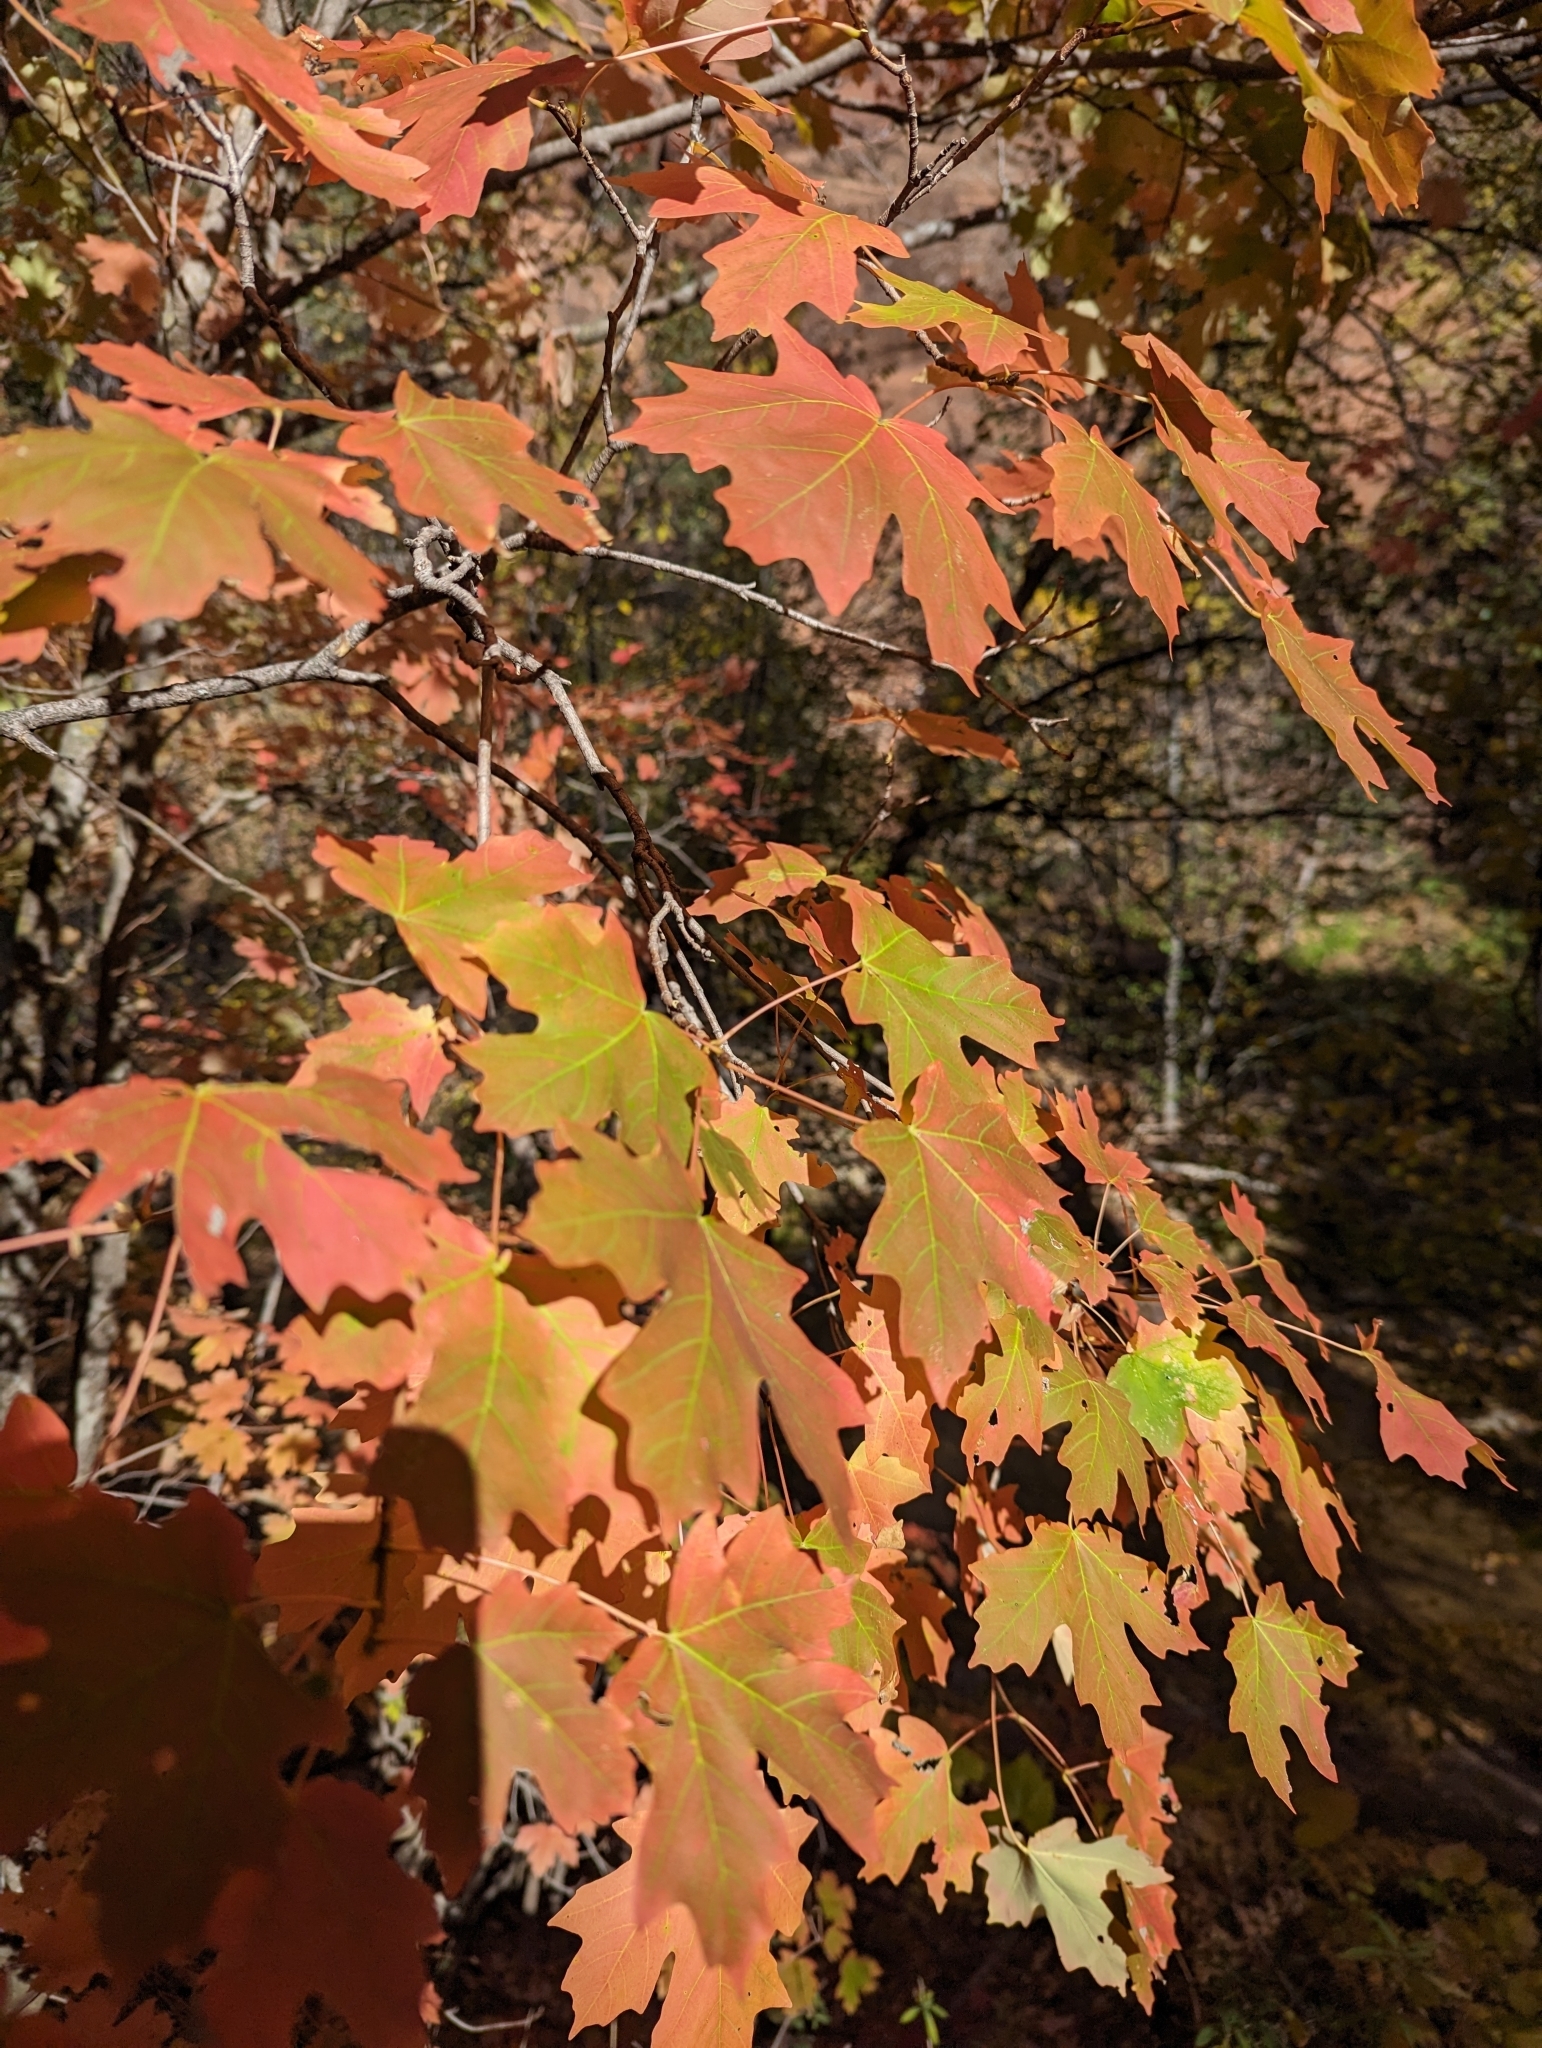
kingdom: Plantae
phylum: Tracheophyta
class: Magnoliopsida
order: Sapindales
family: Sapindaceae
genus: Acer
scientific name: Acer grandidentatum
